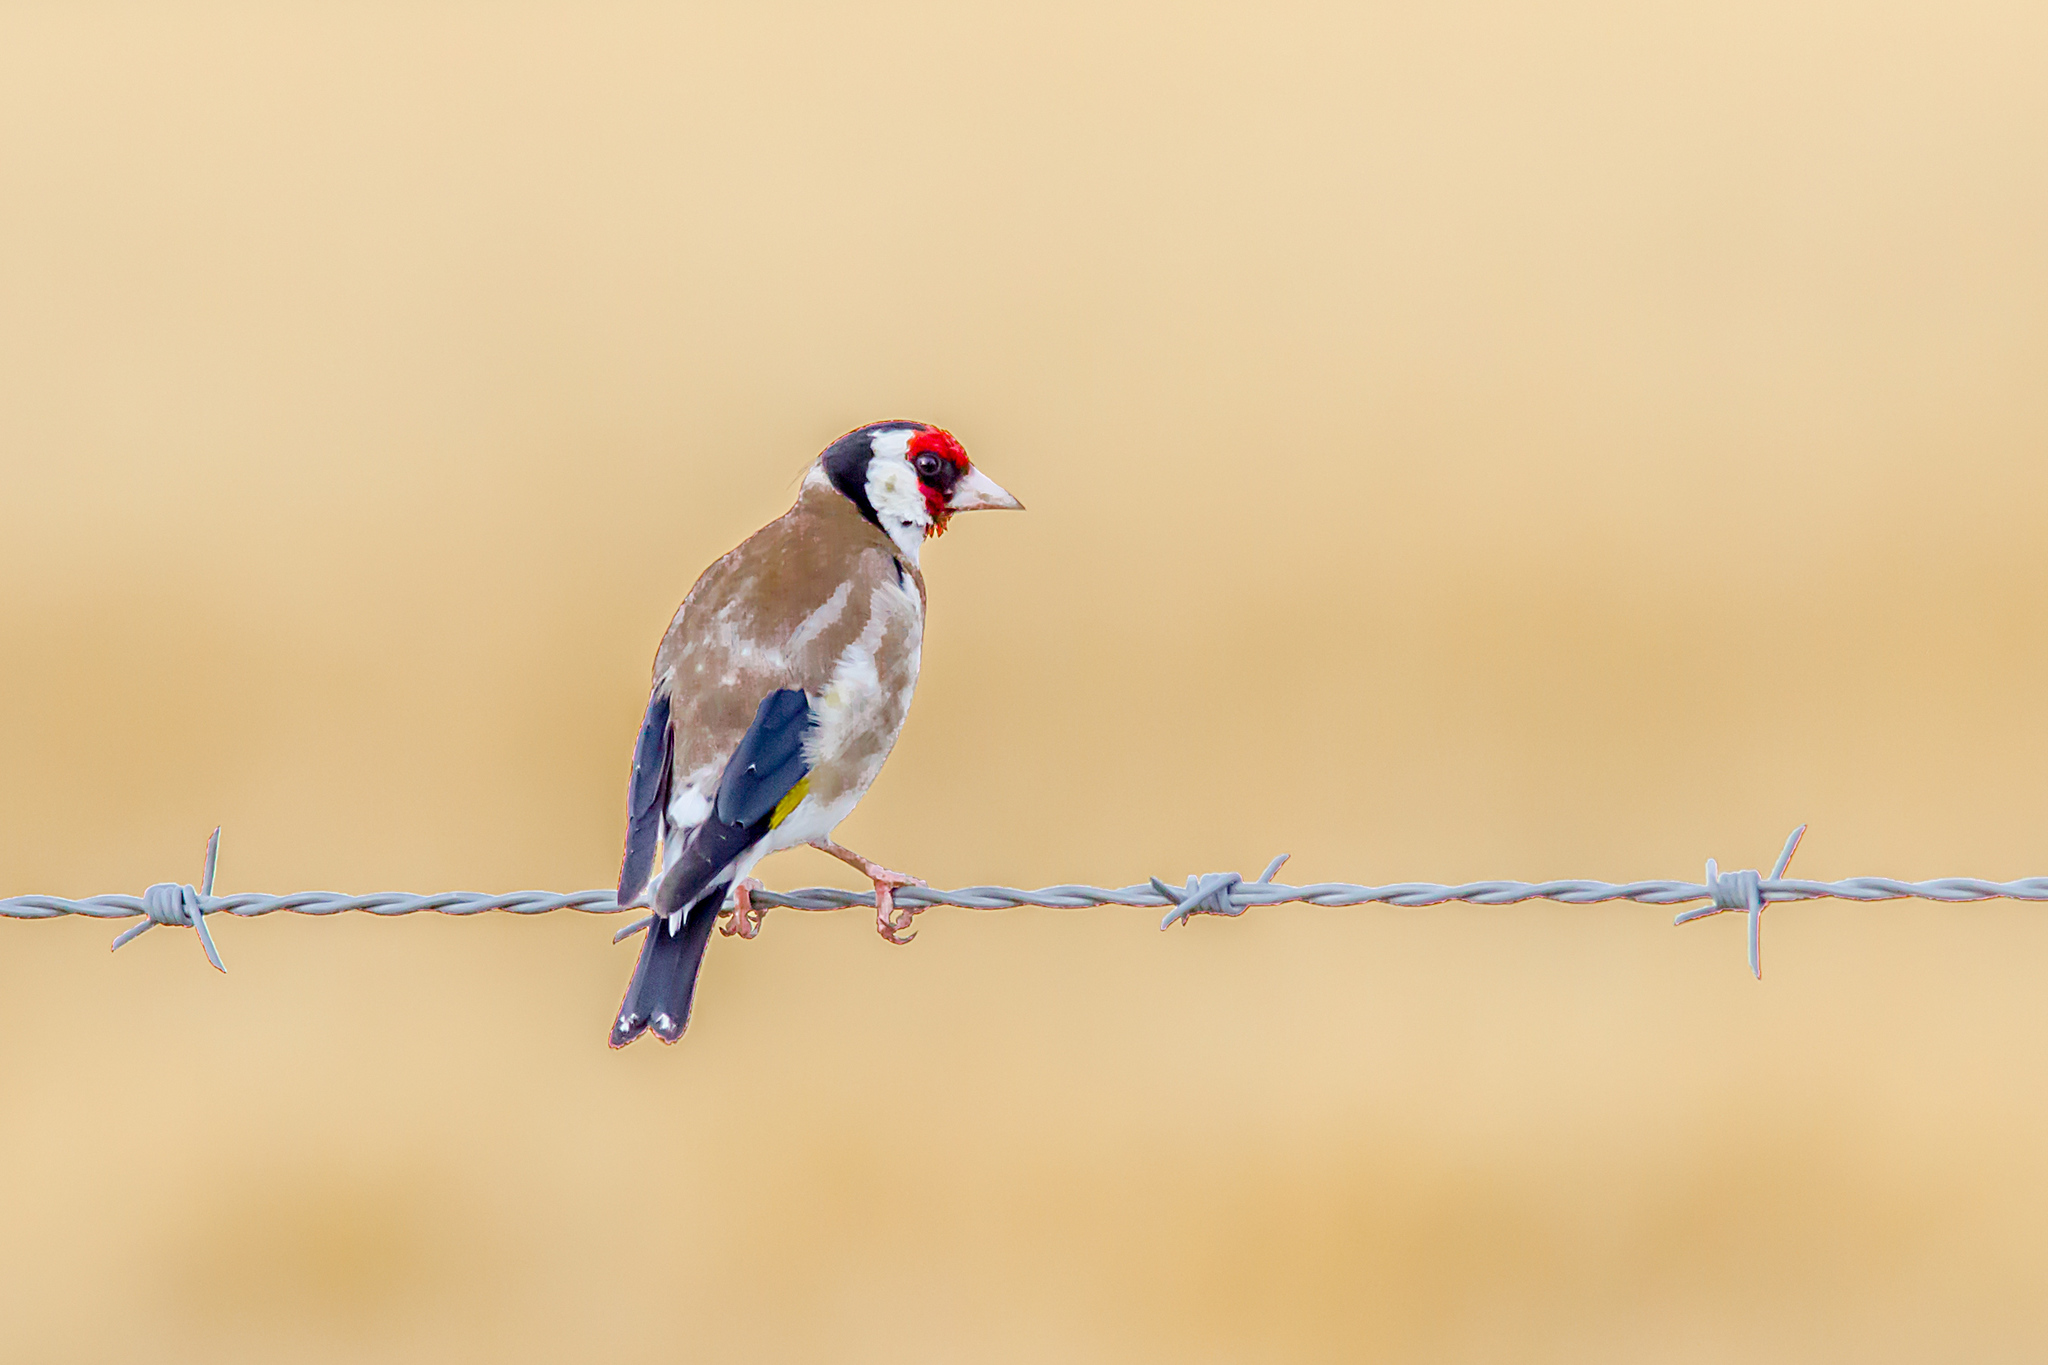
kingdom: Animalia
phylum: Chordata
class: Aves
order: Passeriformes
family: Fringillidae
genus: Carduelis
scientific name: Carduelis carduelis
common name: European goldfinch
